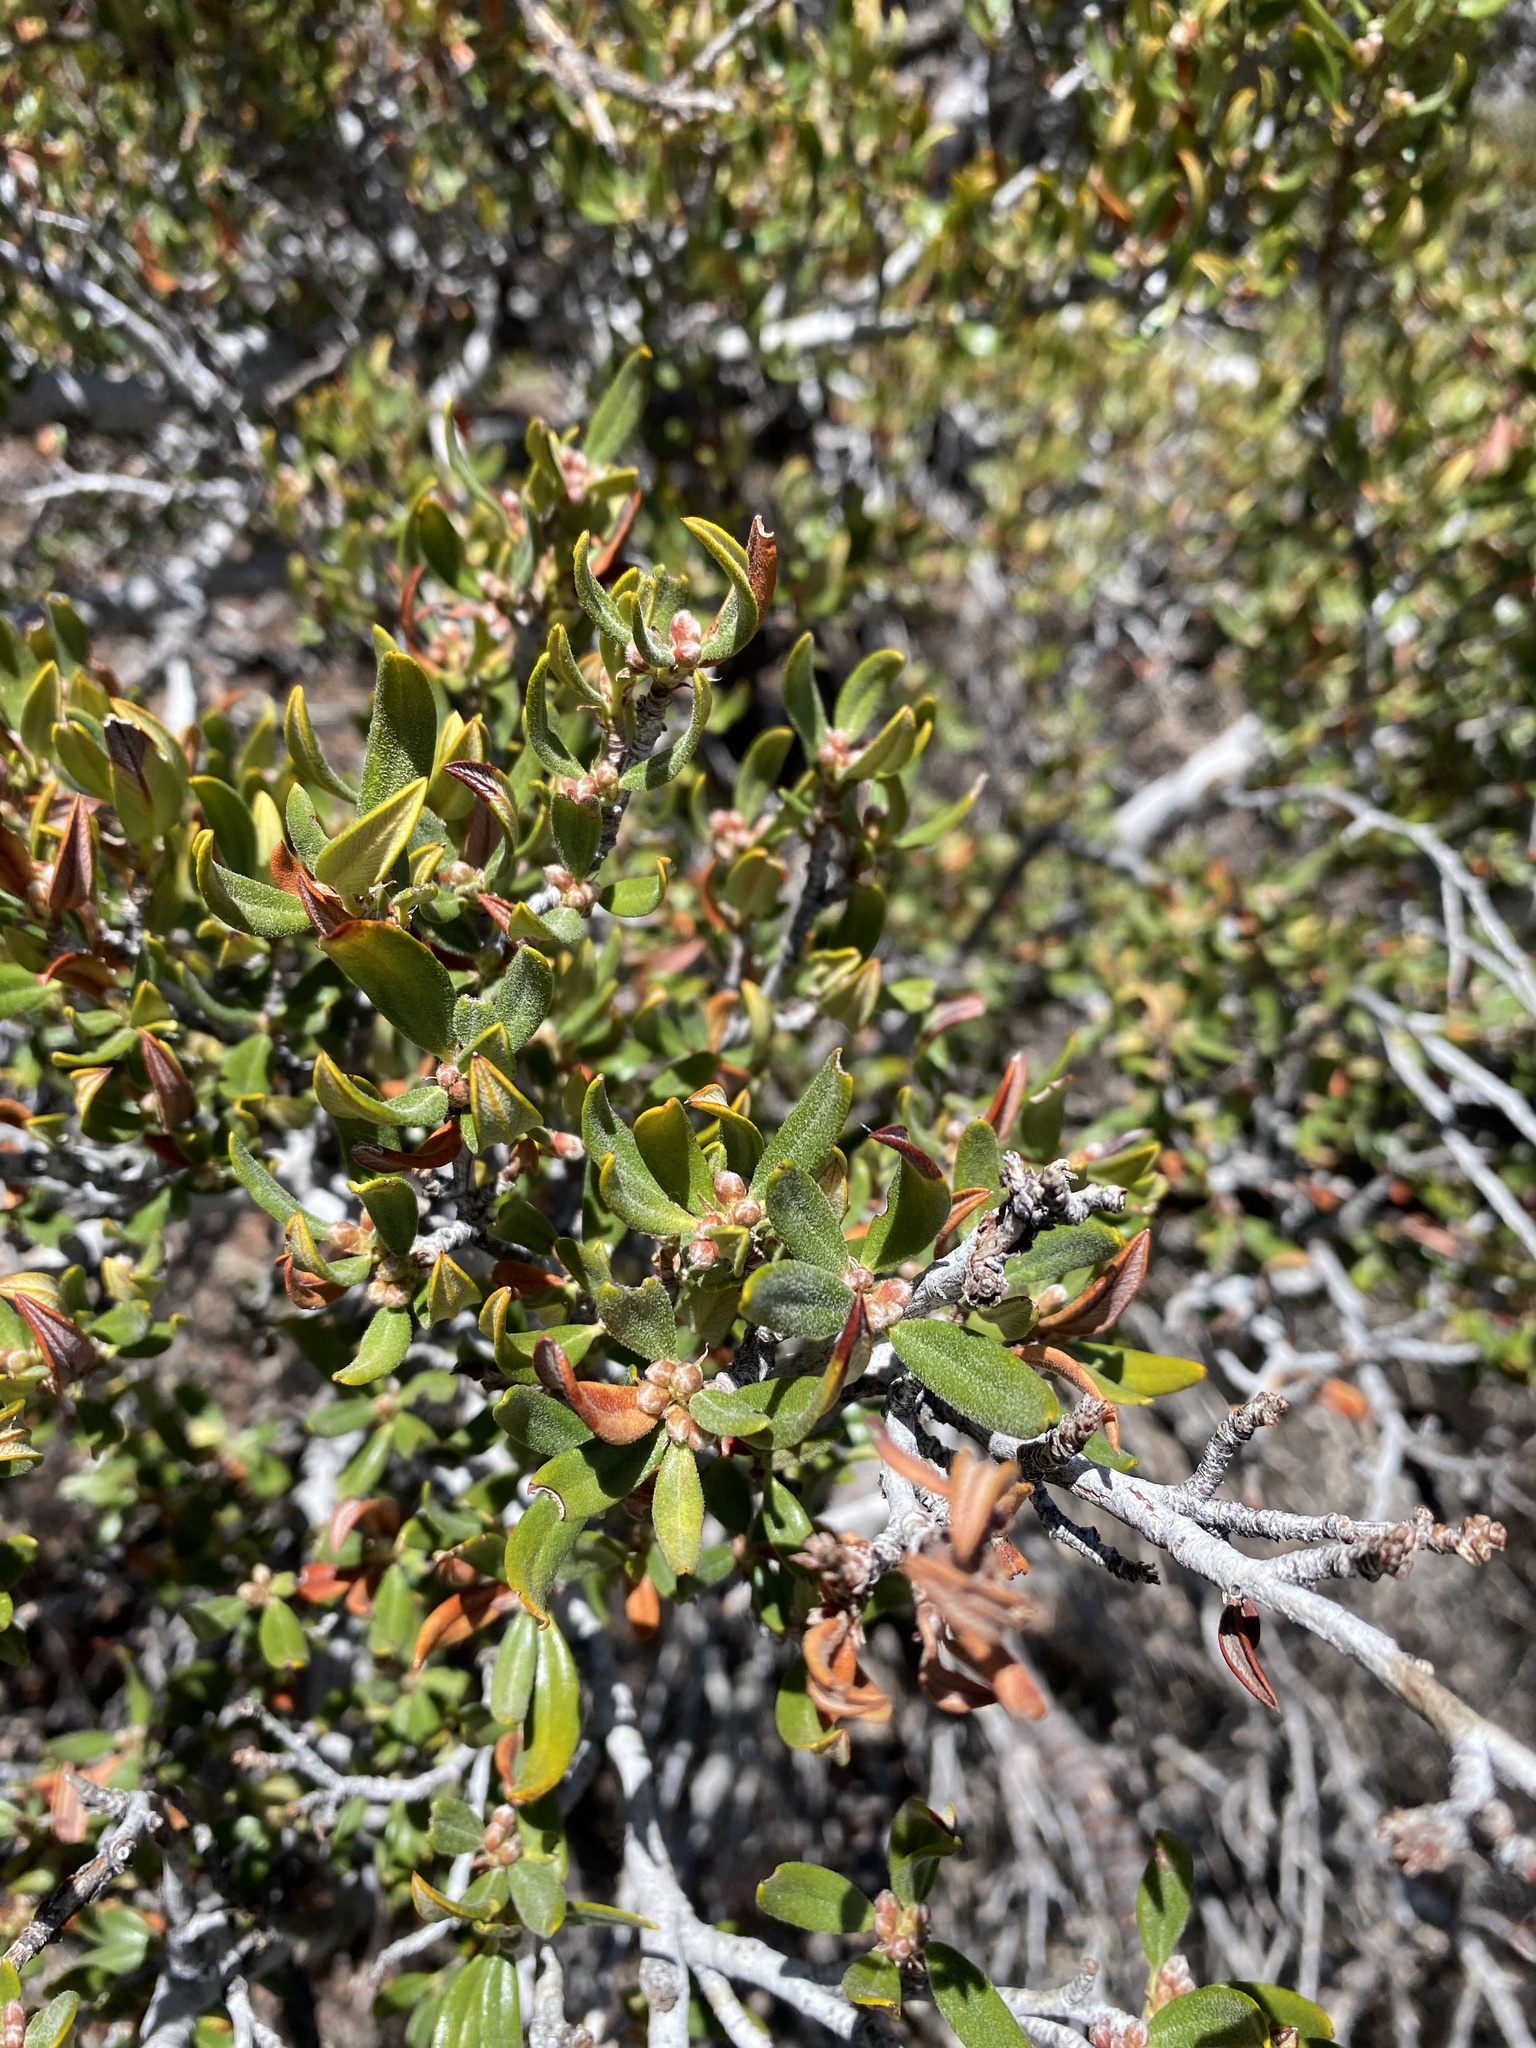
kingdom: Plantae
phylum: Tracheophyta
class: Magnoliopsida
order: Rosales
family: Rosaceae
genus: Cercocarpus
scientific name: Cercocarpus ledifolius
